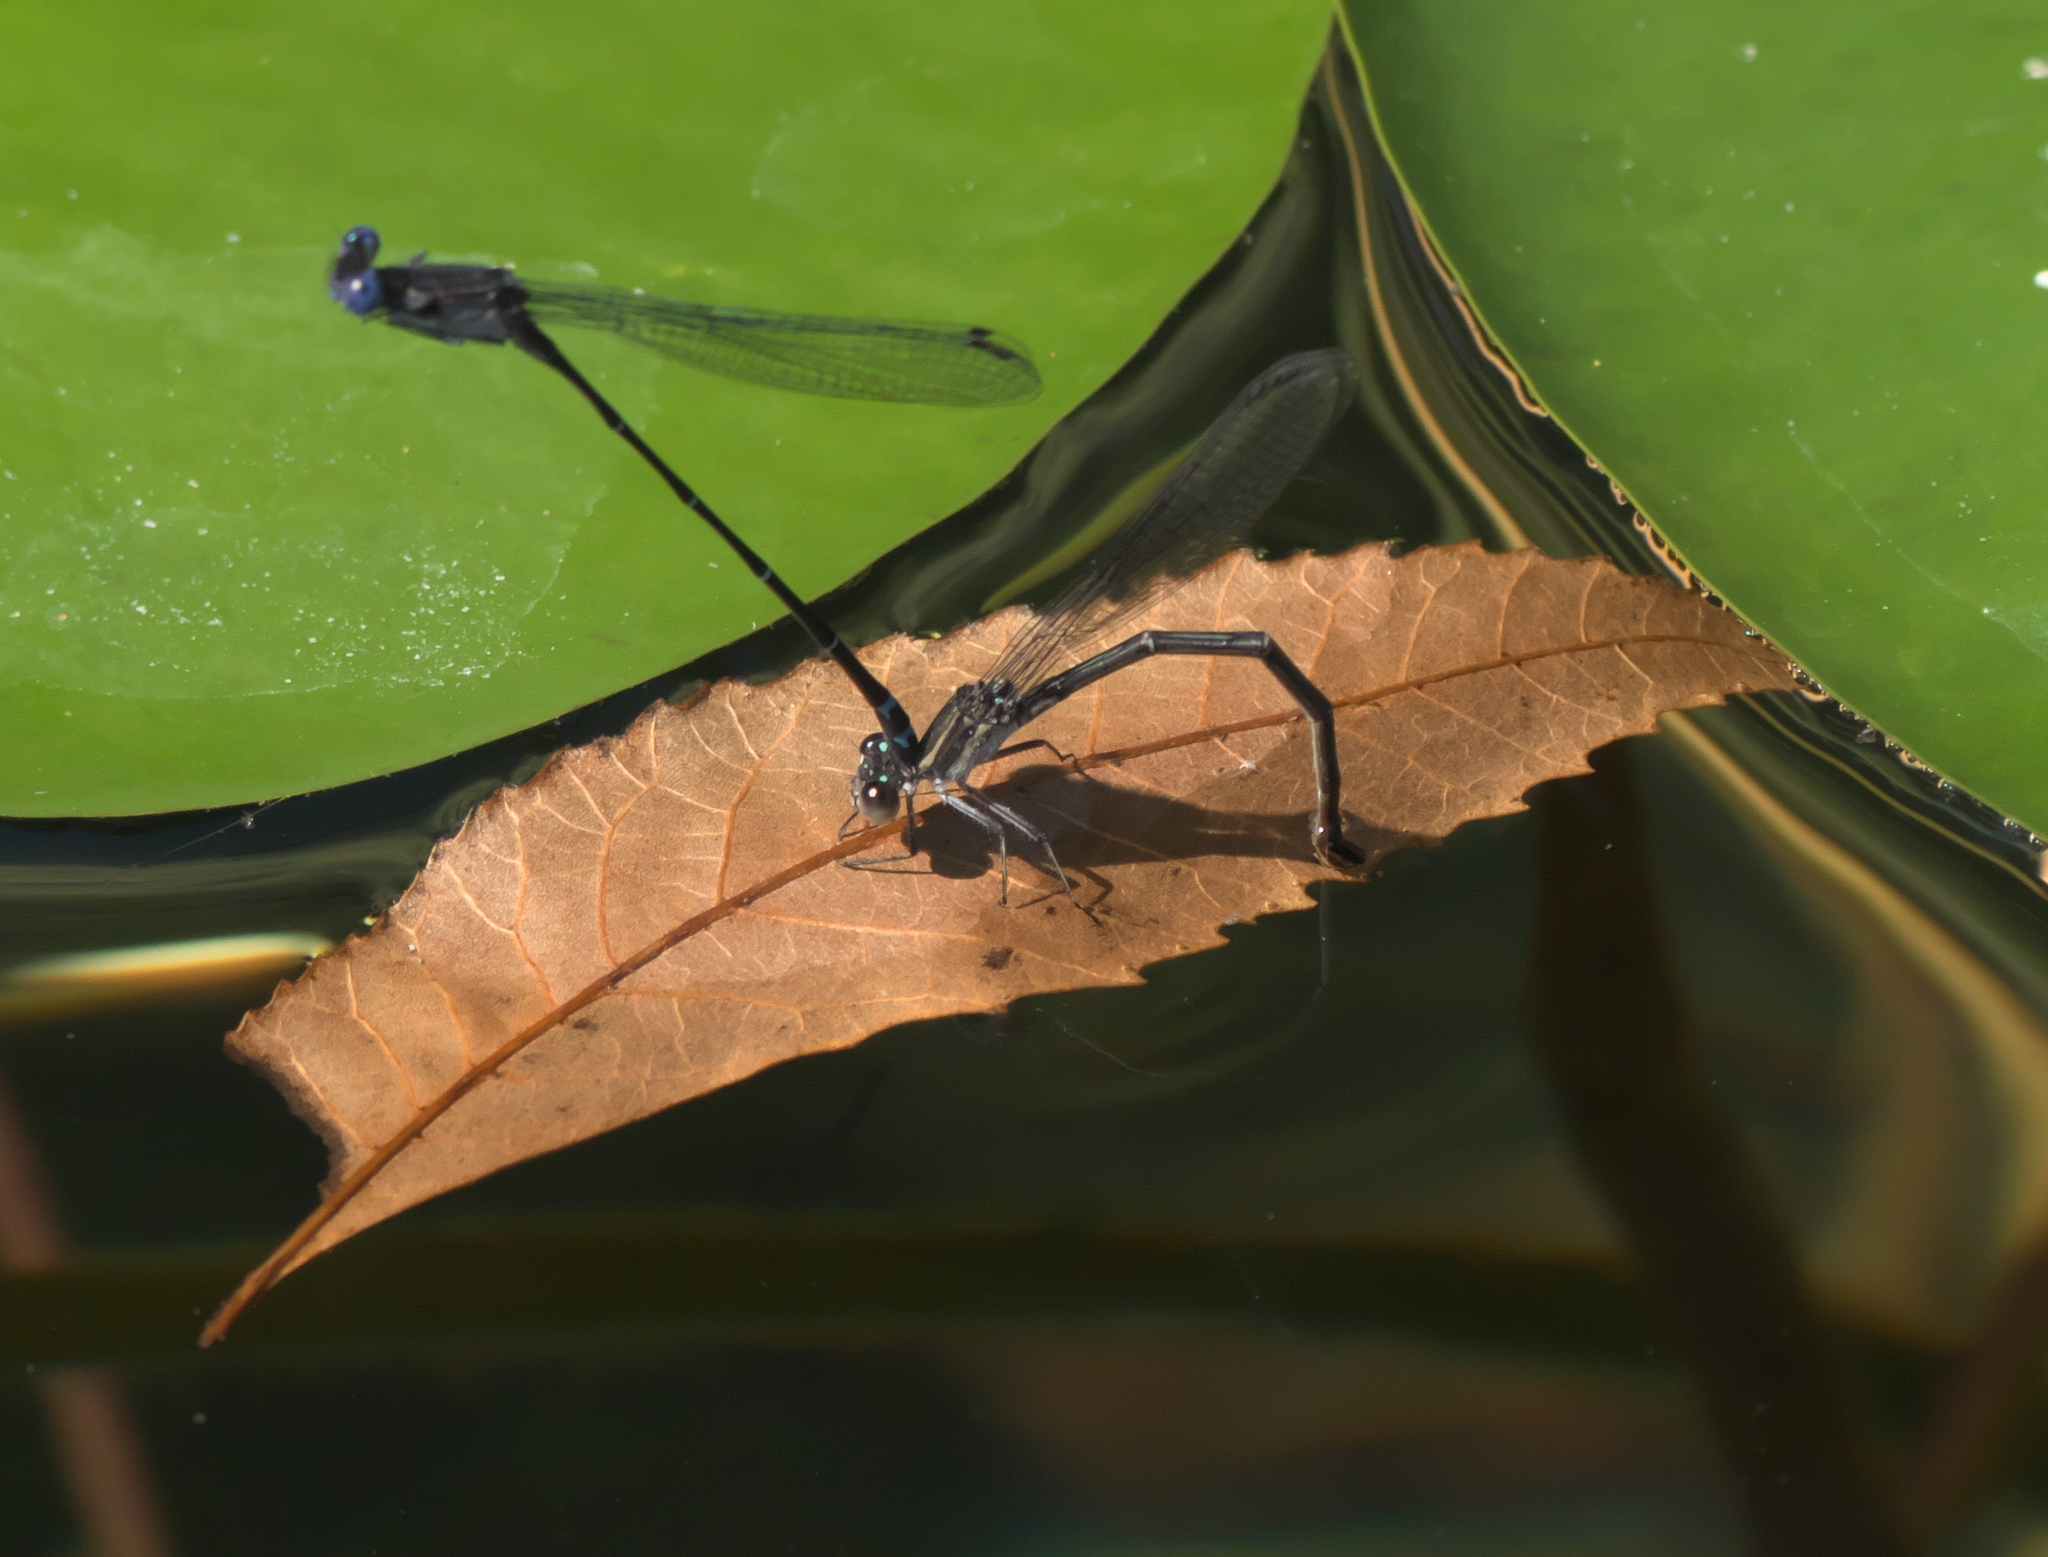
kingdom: Animalia
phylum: Arthropoda
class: Insecta
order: Odonata
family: Coenagrionidae
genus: Argia
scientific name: Argia translata
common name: Dusky dancer
